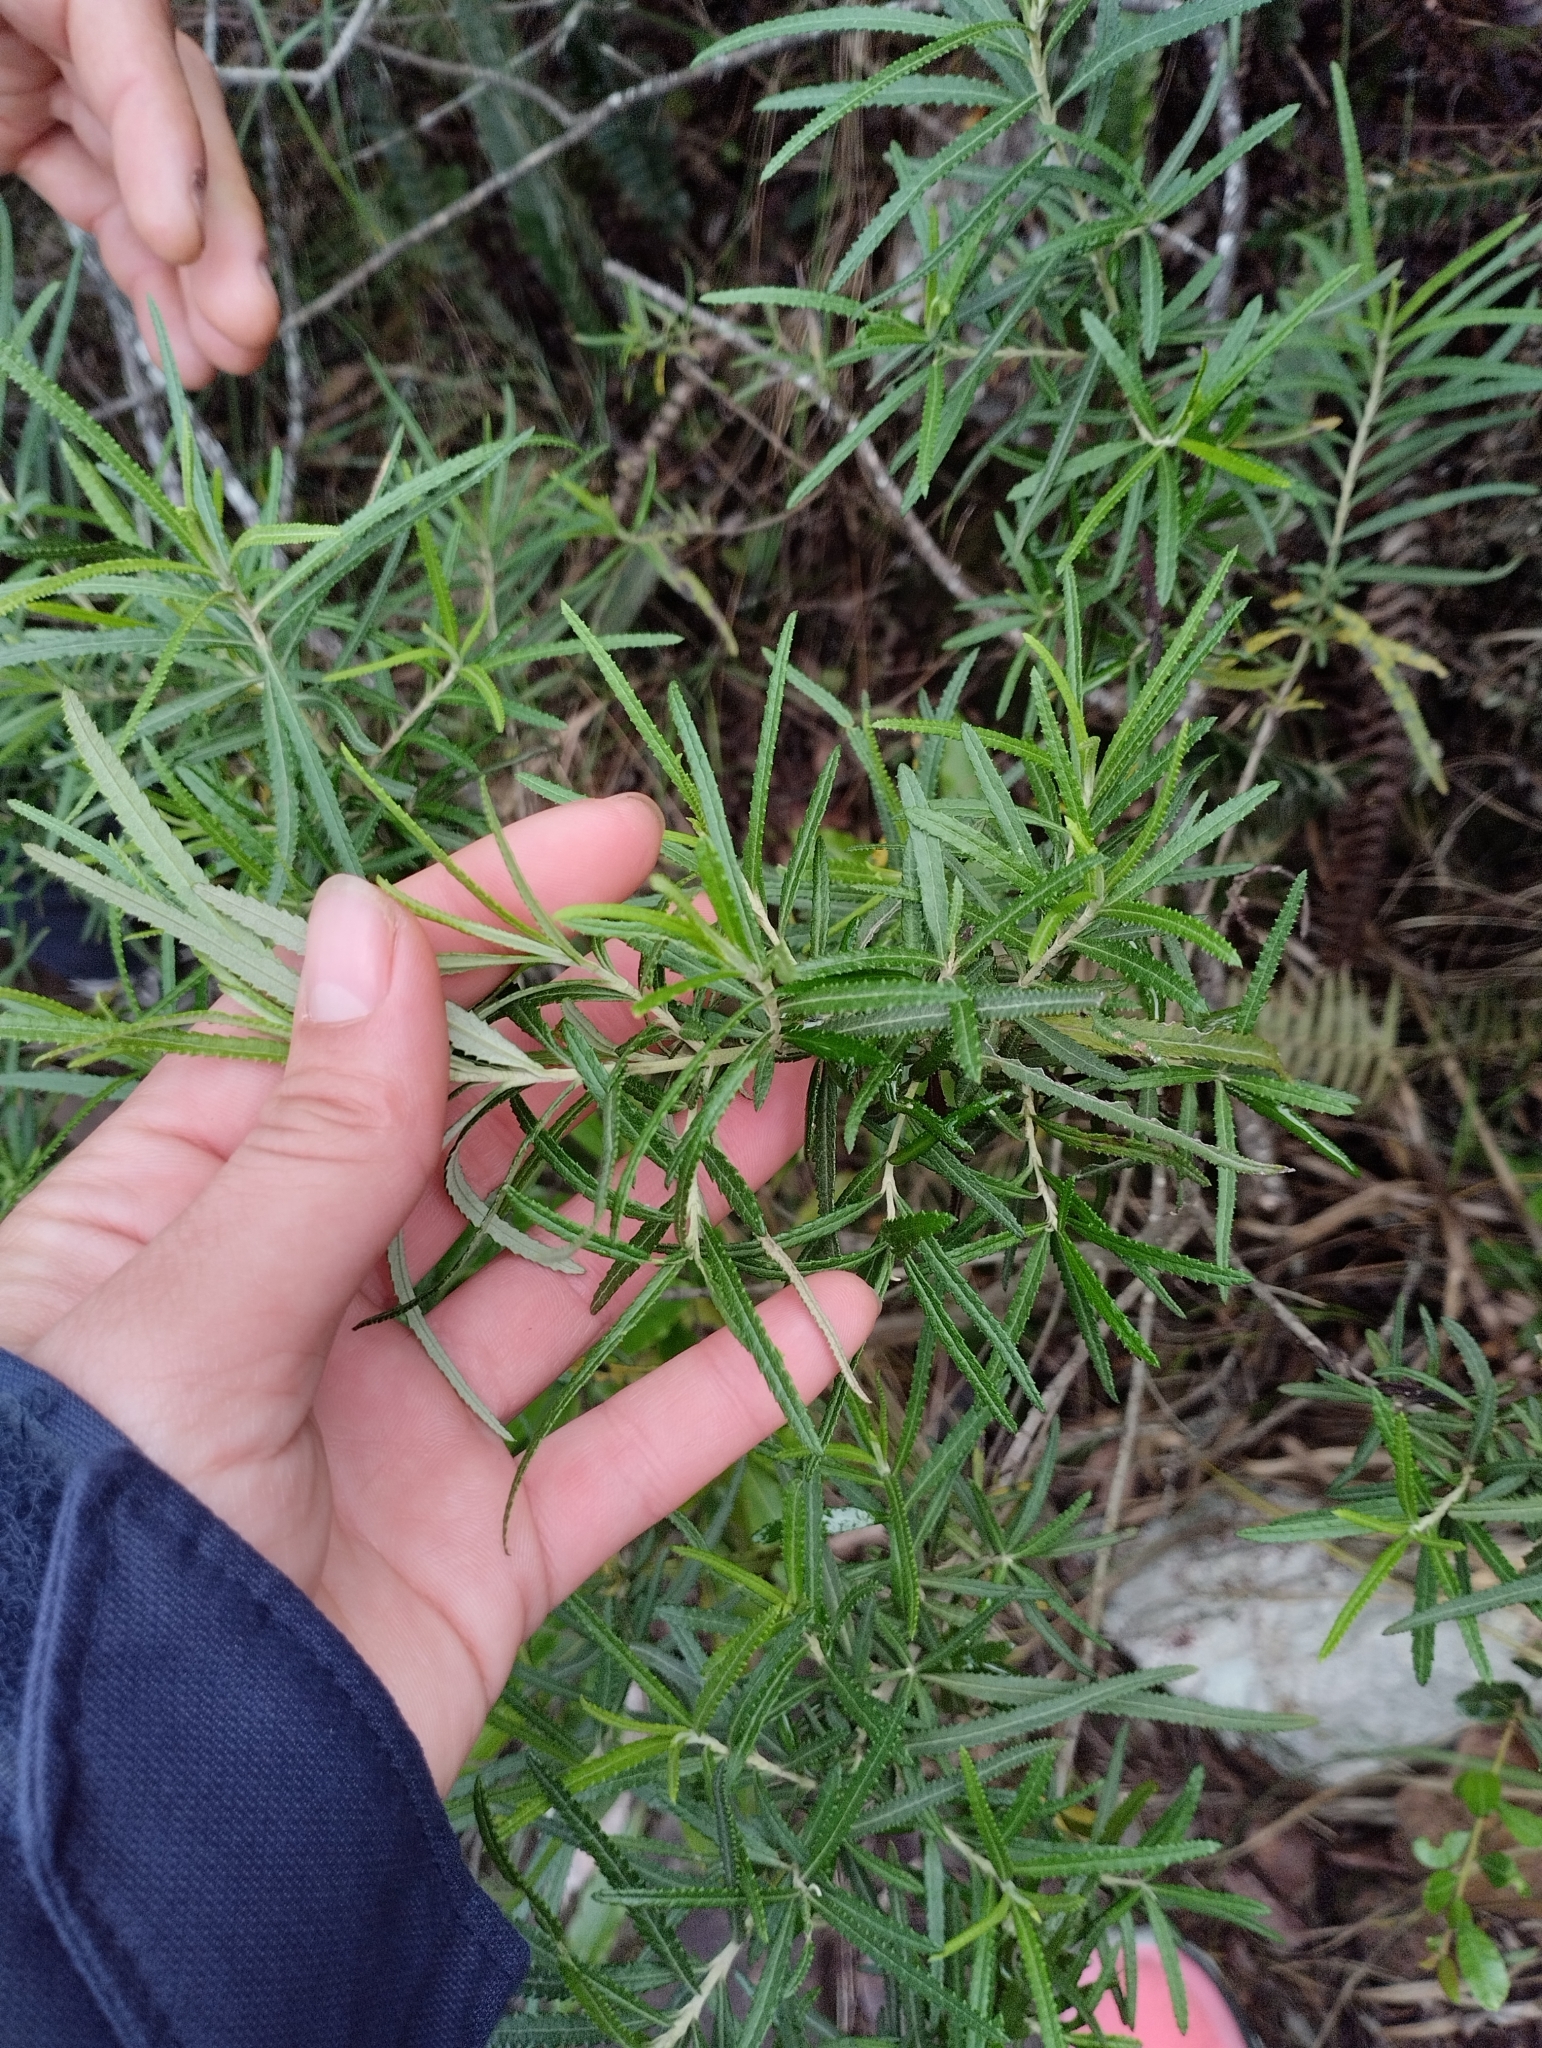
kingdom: Plantae
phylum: Tracheophyta
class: Magnoliopsida
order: Asterales
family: Asteraceae
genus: Grazielia
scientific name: Grazielia serrata
